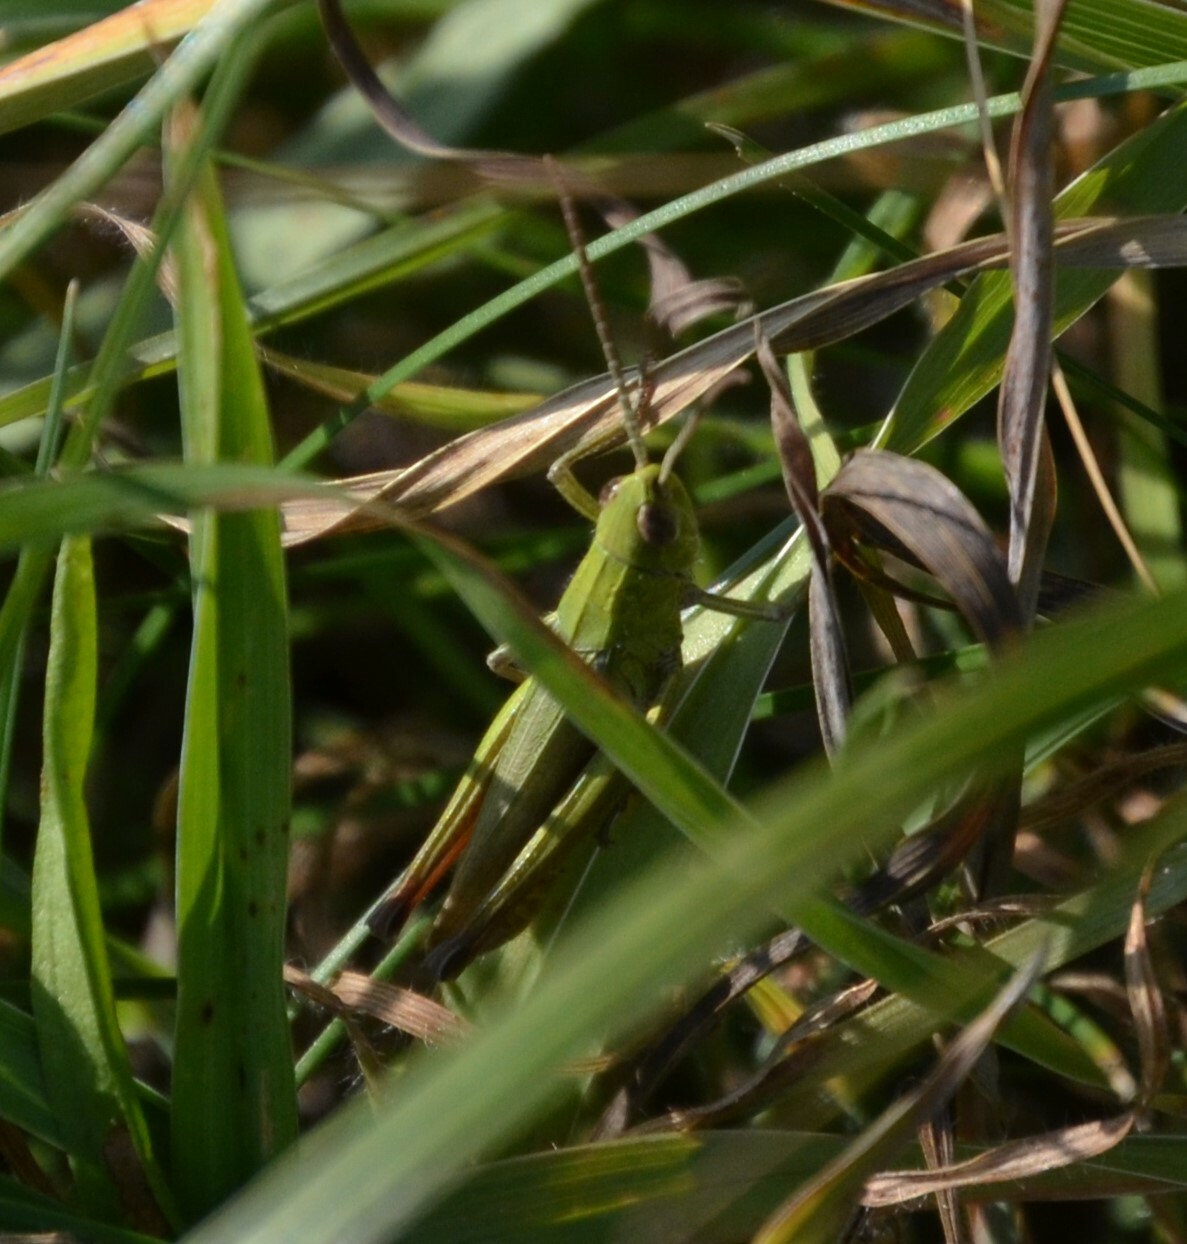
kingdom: Animalia
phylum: Arthropoda
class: Insecta
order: Orthoptera
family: Acrididae
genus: Chorthippus
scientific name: Chorthippus dorsatus
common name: Steppe grasshopper
